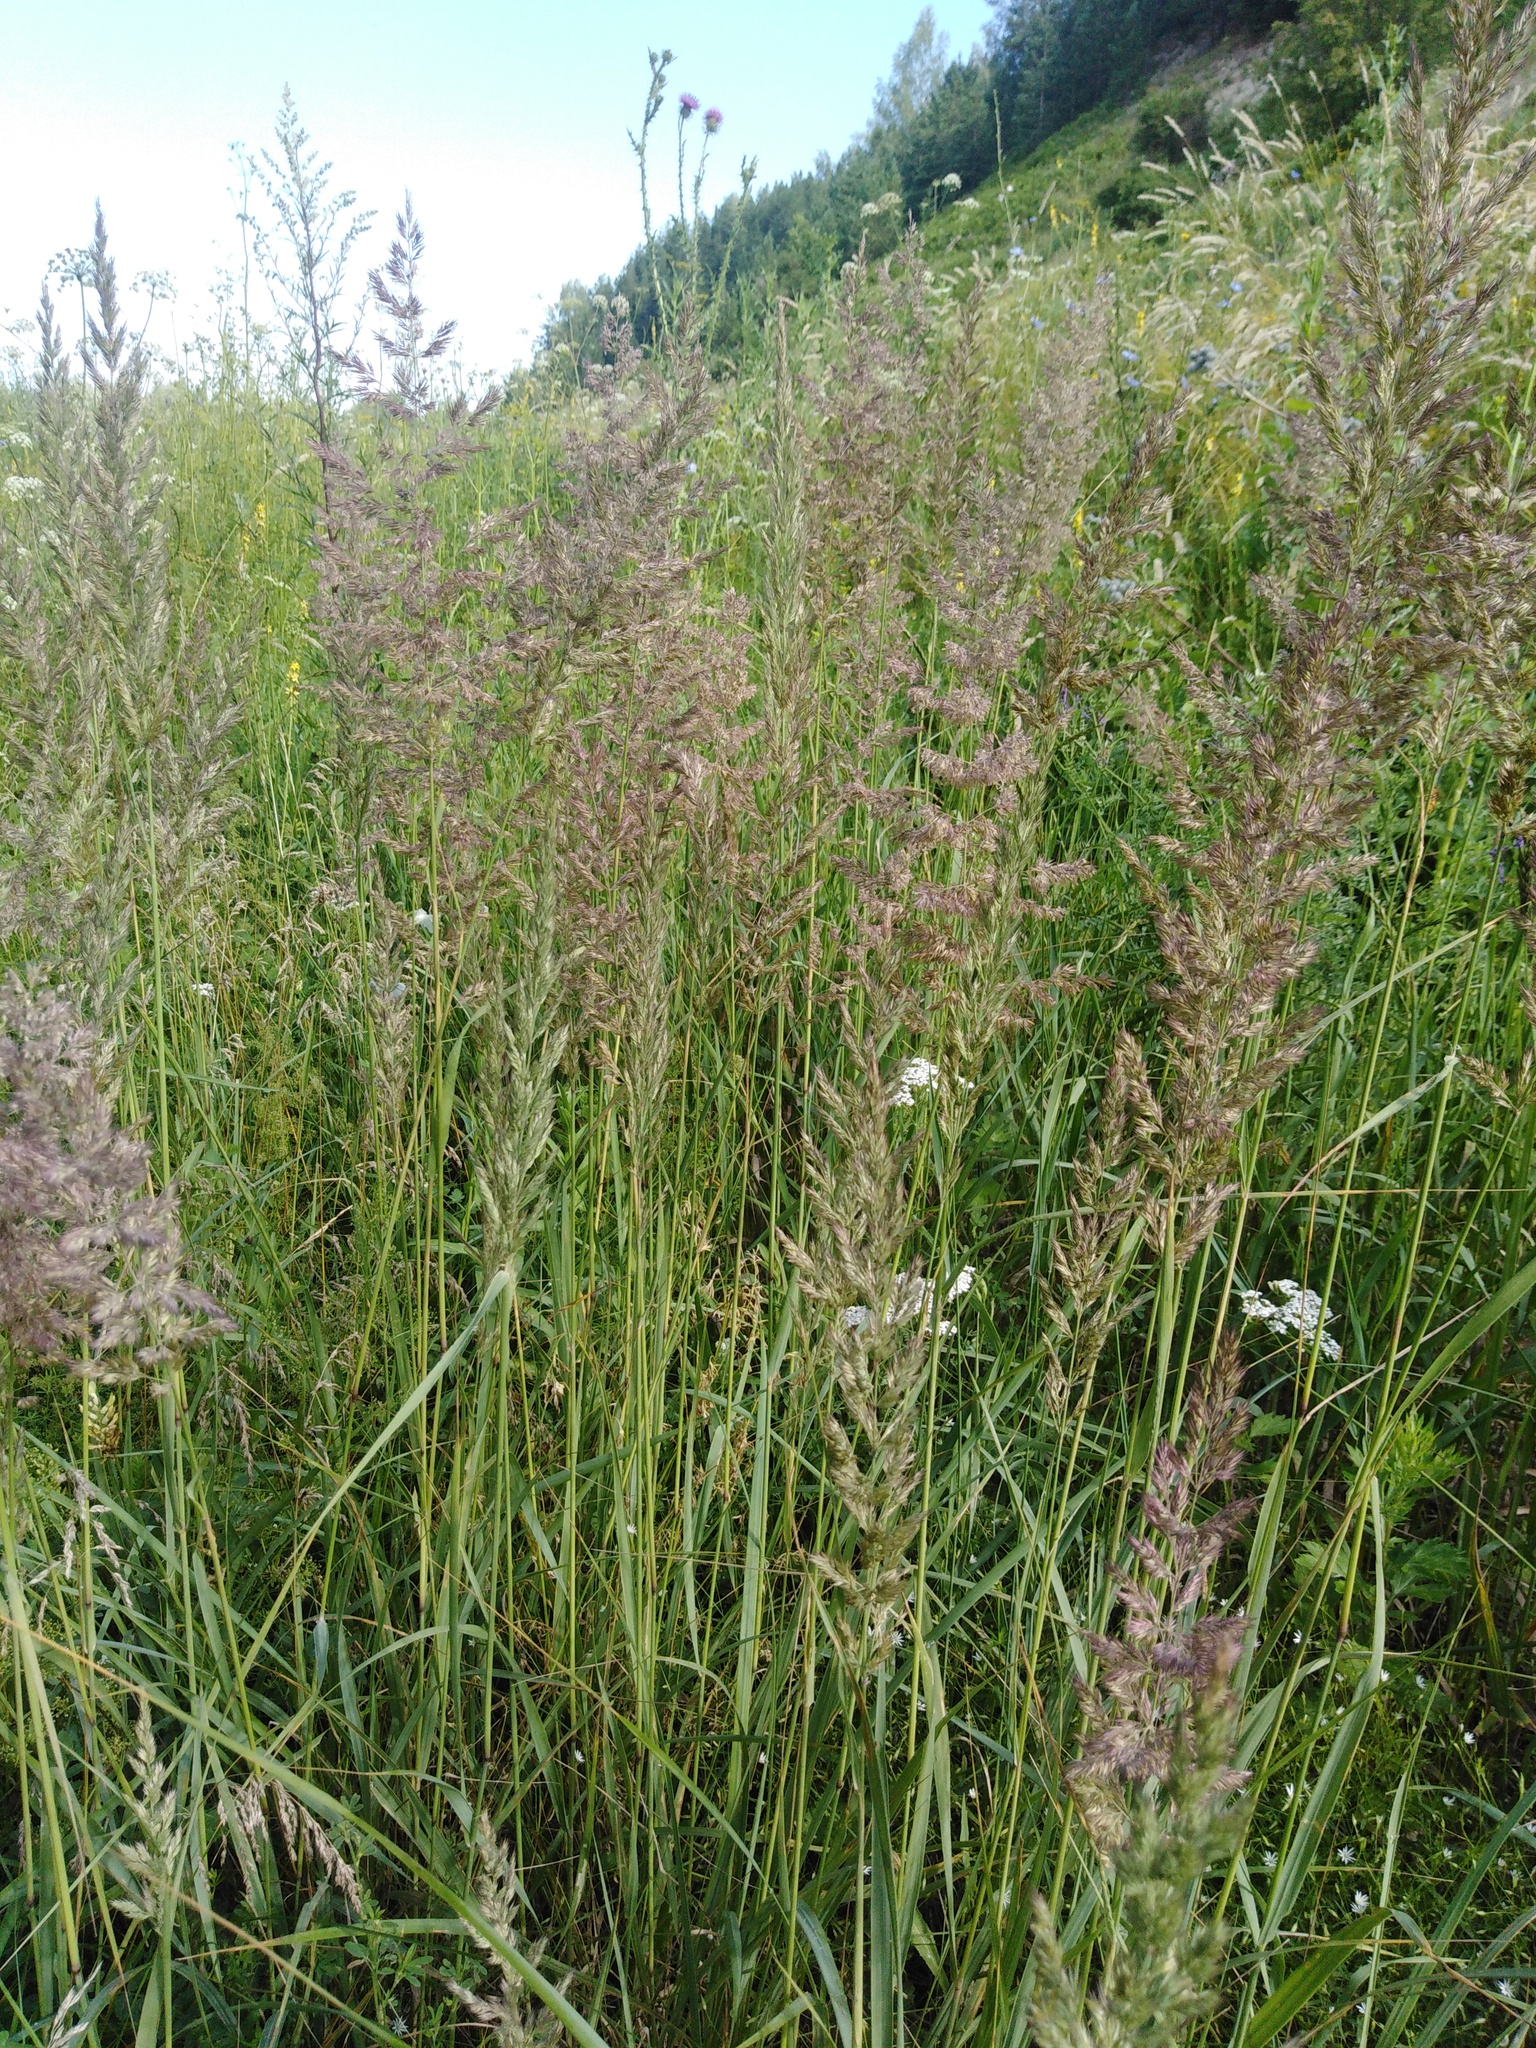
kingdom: Plantae
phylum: Tracheophyta
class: Liliopsida
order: Poales
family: Poaceae
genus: Calamagrostis
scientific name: Calamagrostis epigejos
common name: Wood small-reed
